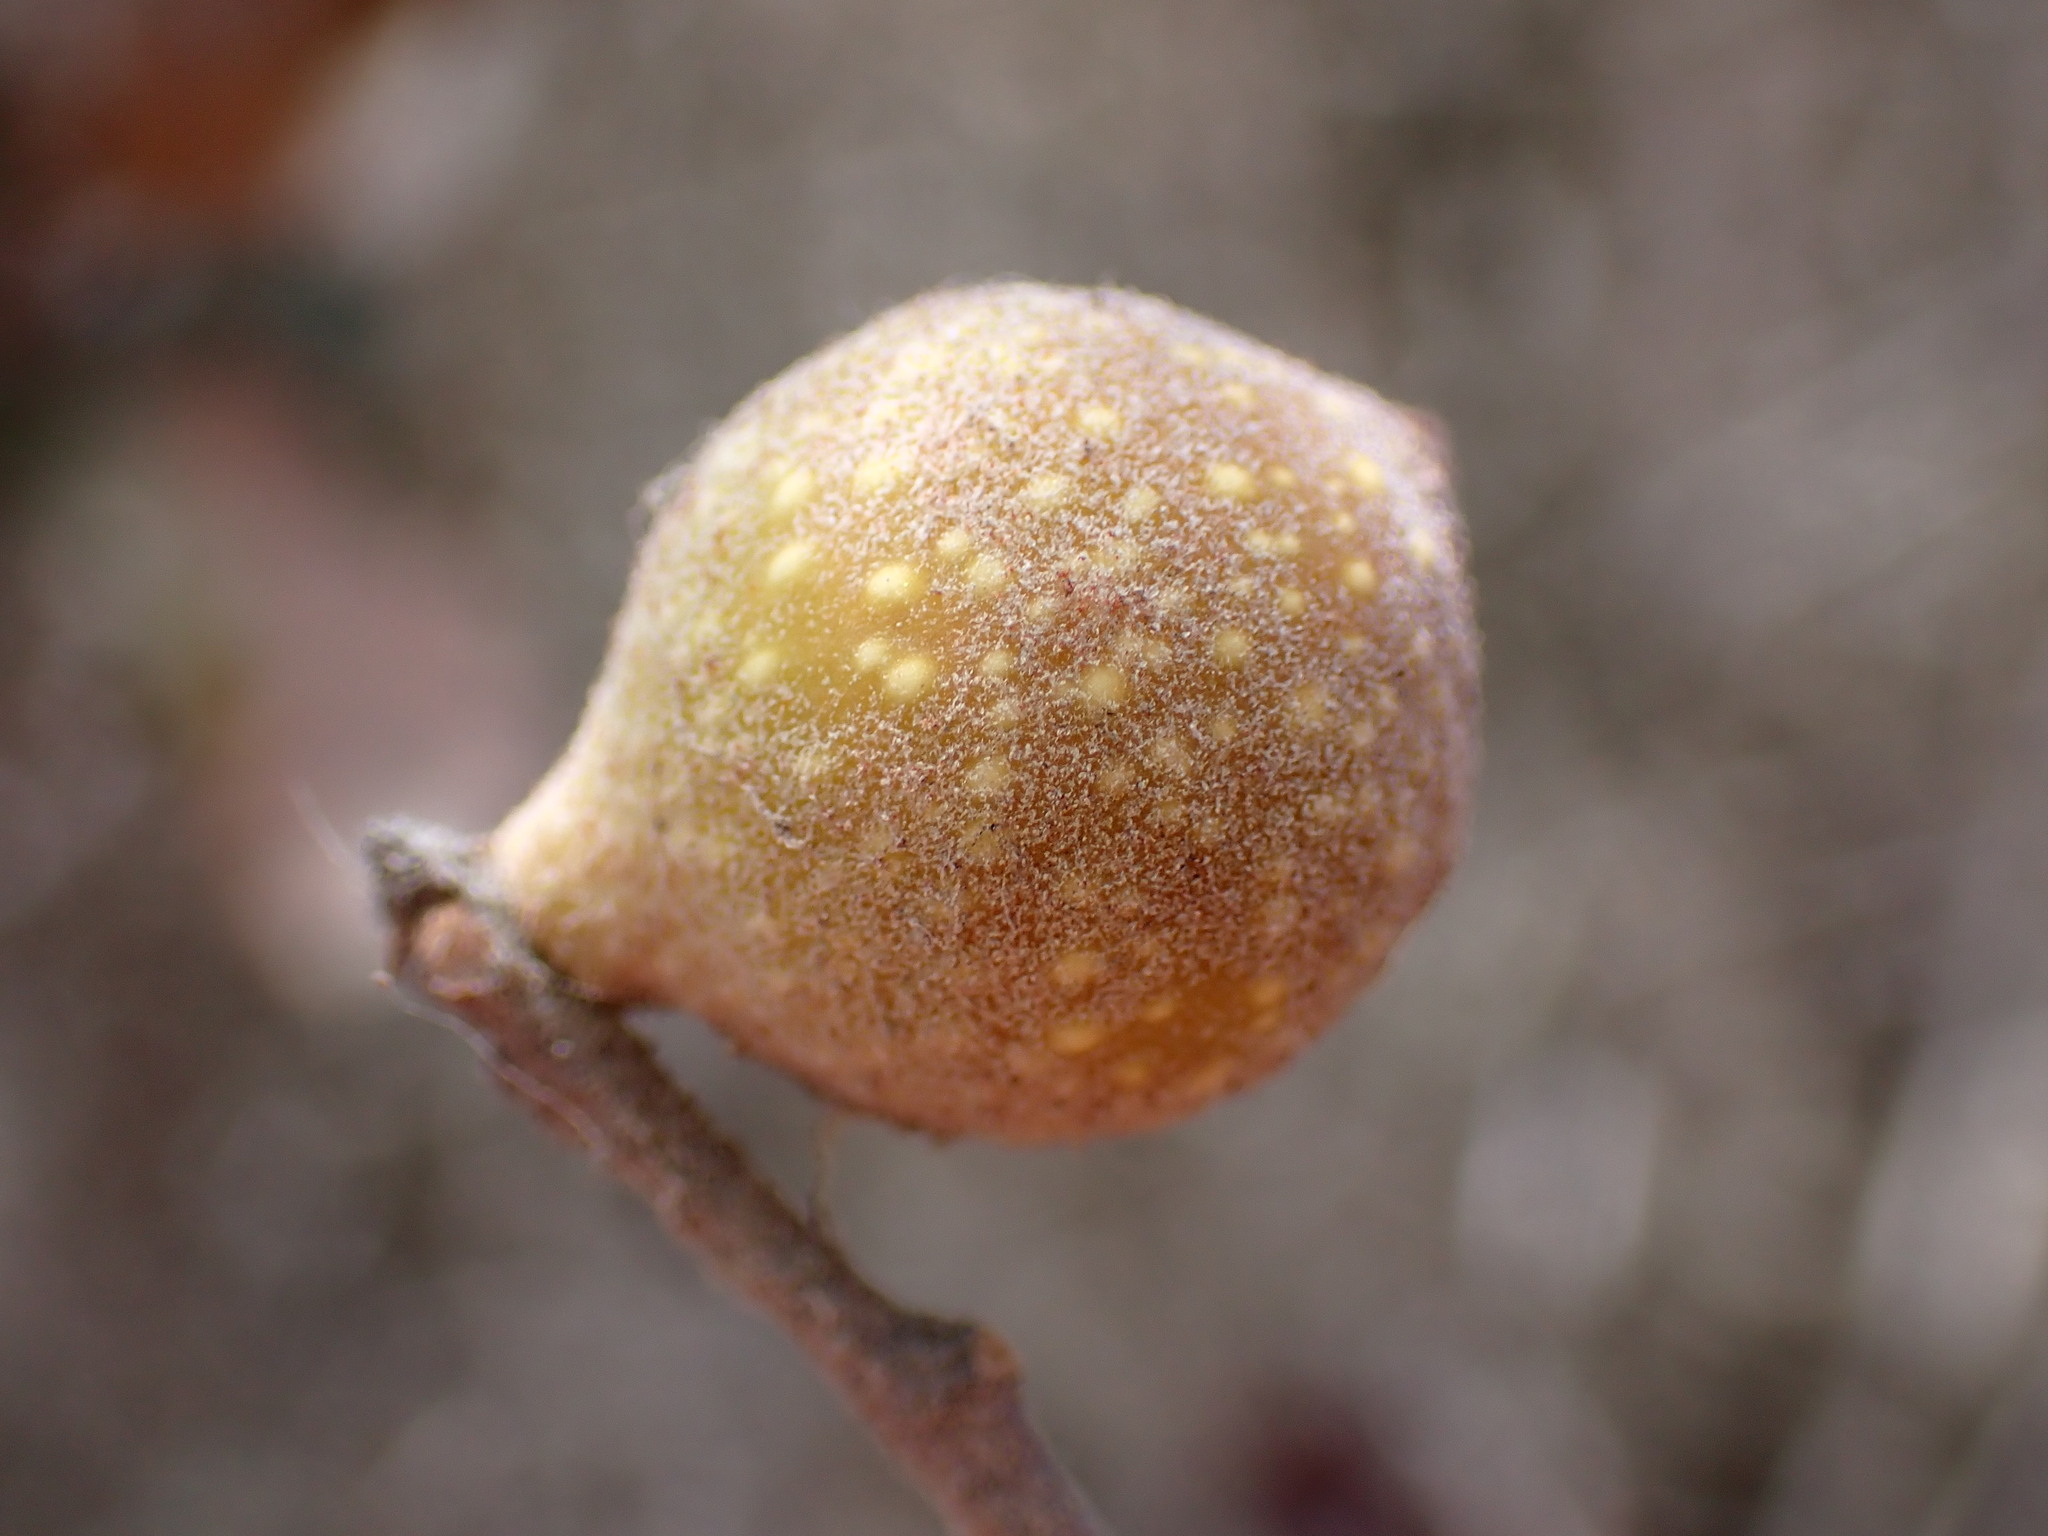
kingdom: Animalia
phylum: Arthropoda
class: Insecta
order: Hymenoptera
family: Cynipidae
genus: Burnettweldia
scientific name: Burnettweldia
